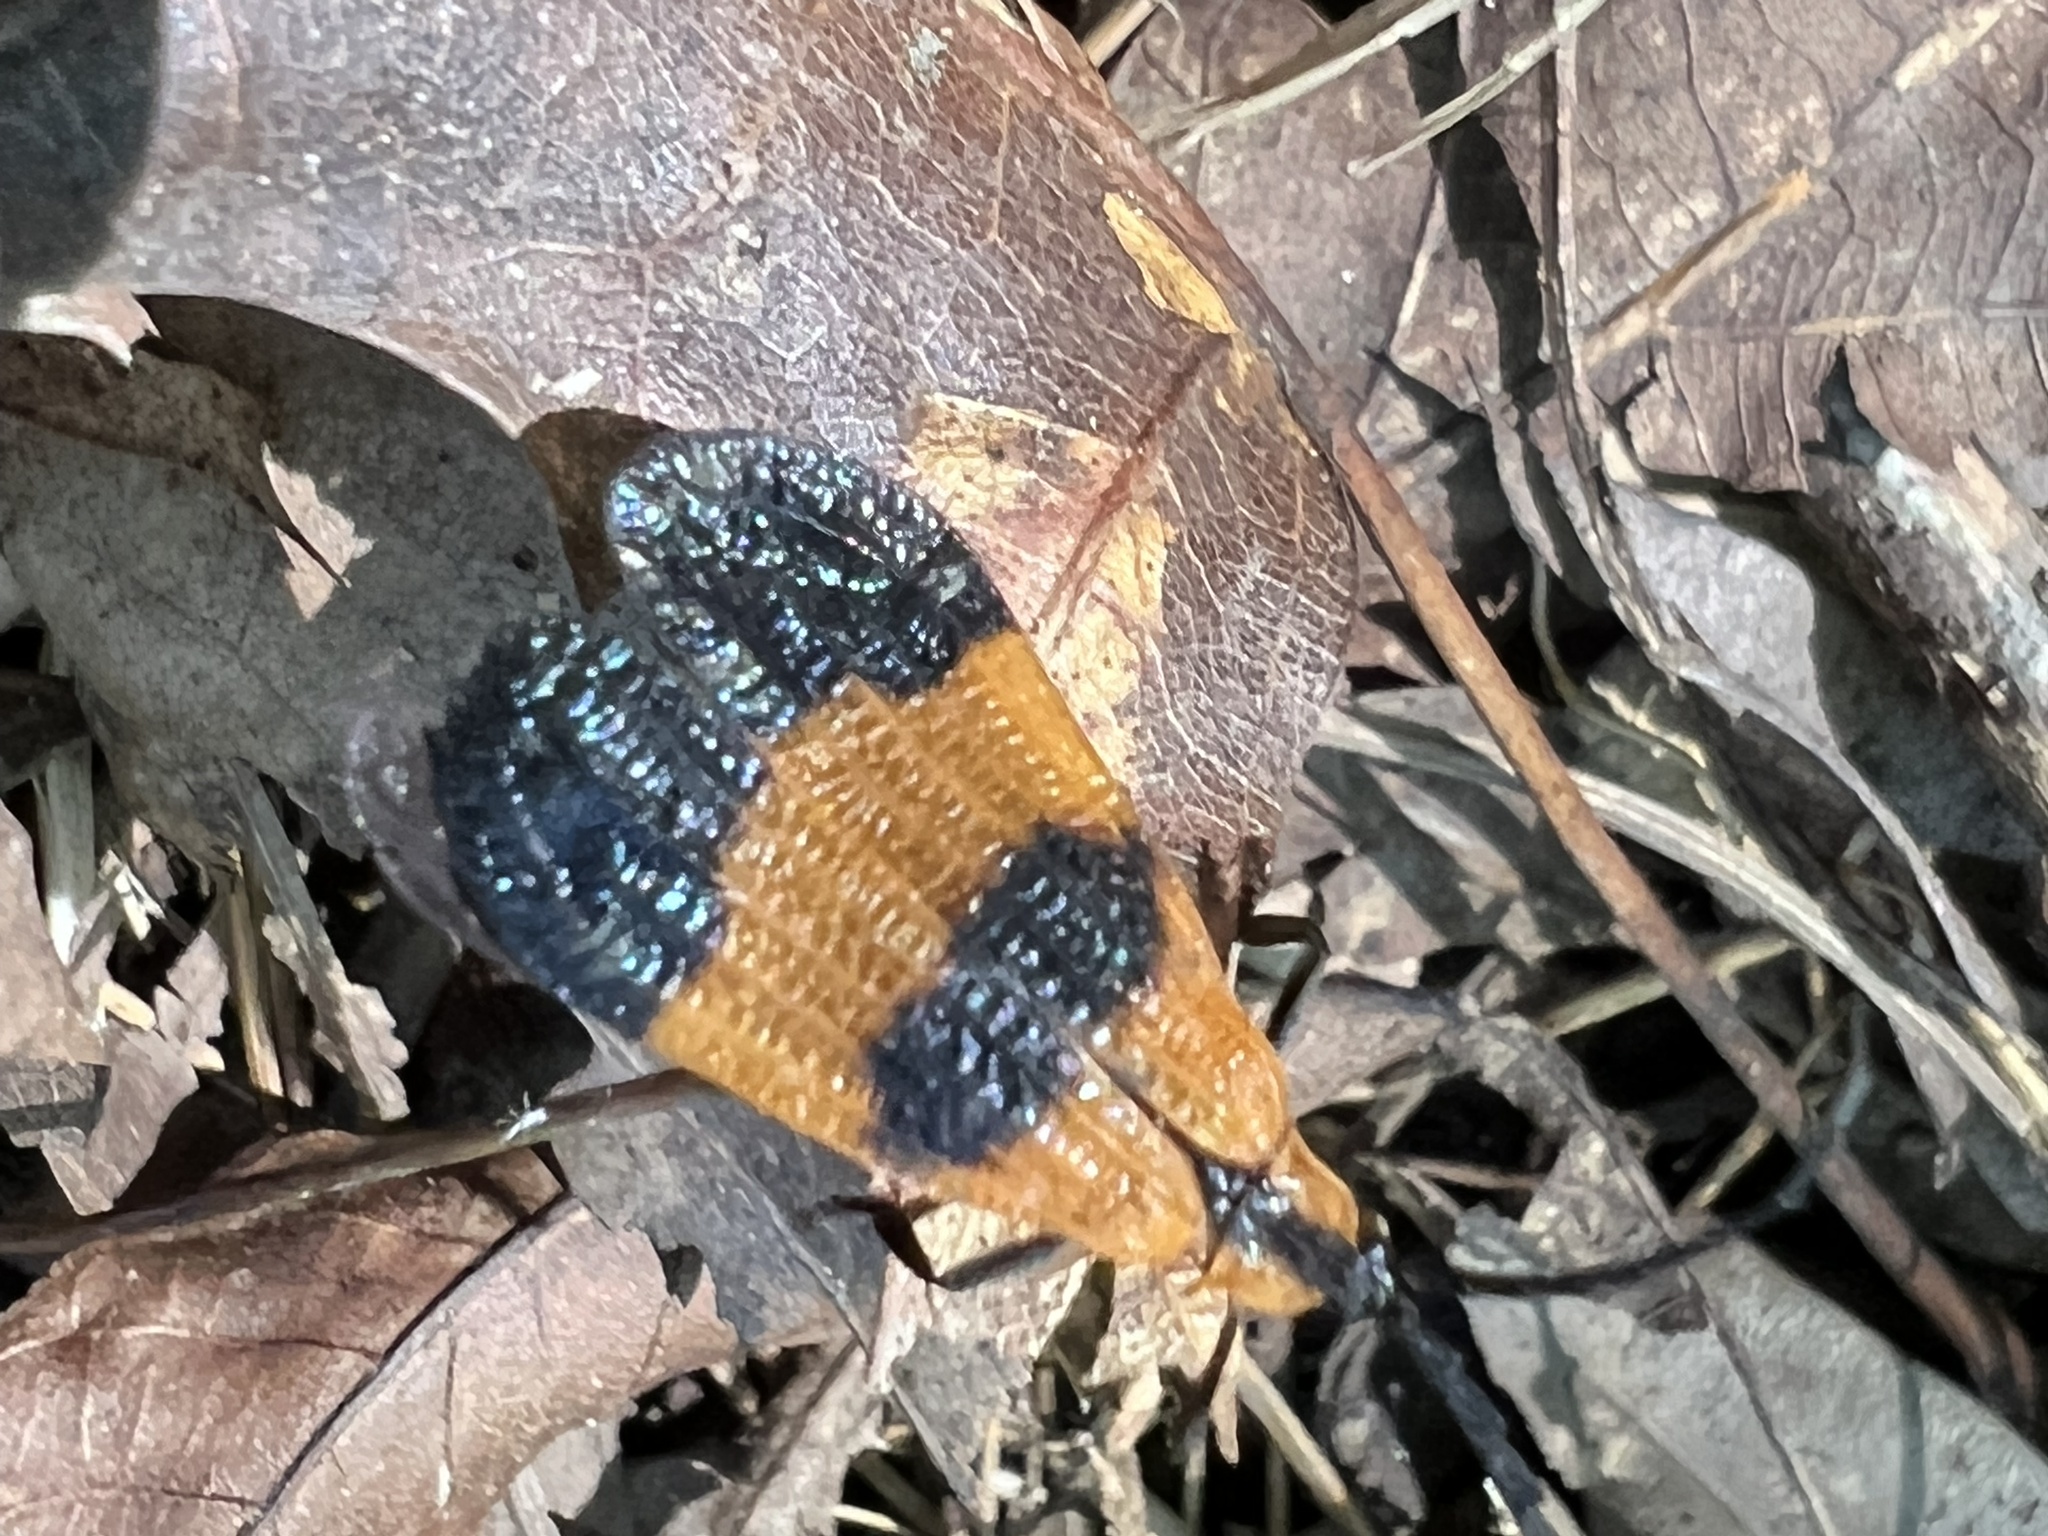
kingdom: Animalia
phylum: Arthropoda
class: Insecta
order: Coleoptera
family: Lycidae
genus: Calopteron
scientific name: Calopteron terminale
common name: End band net-winged beetle
